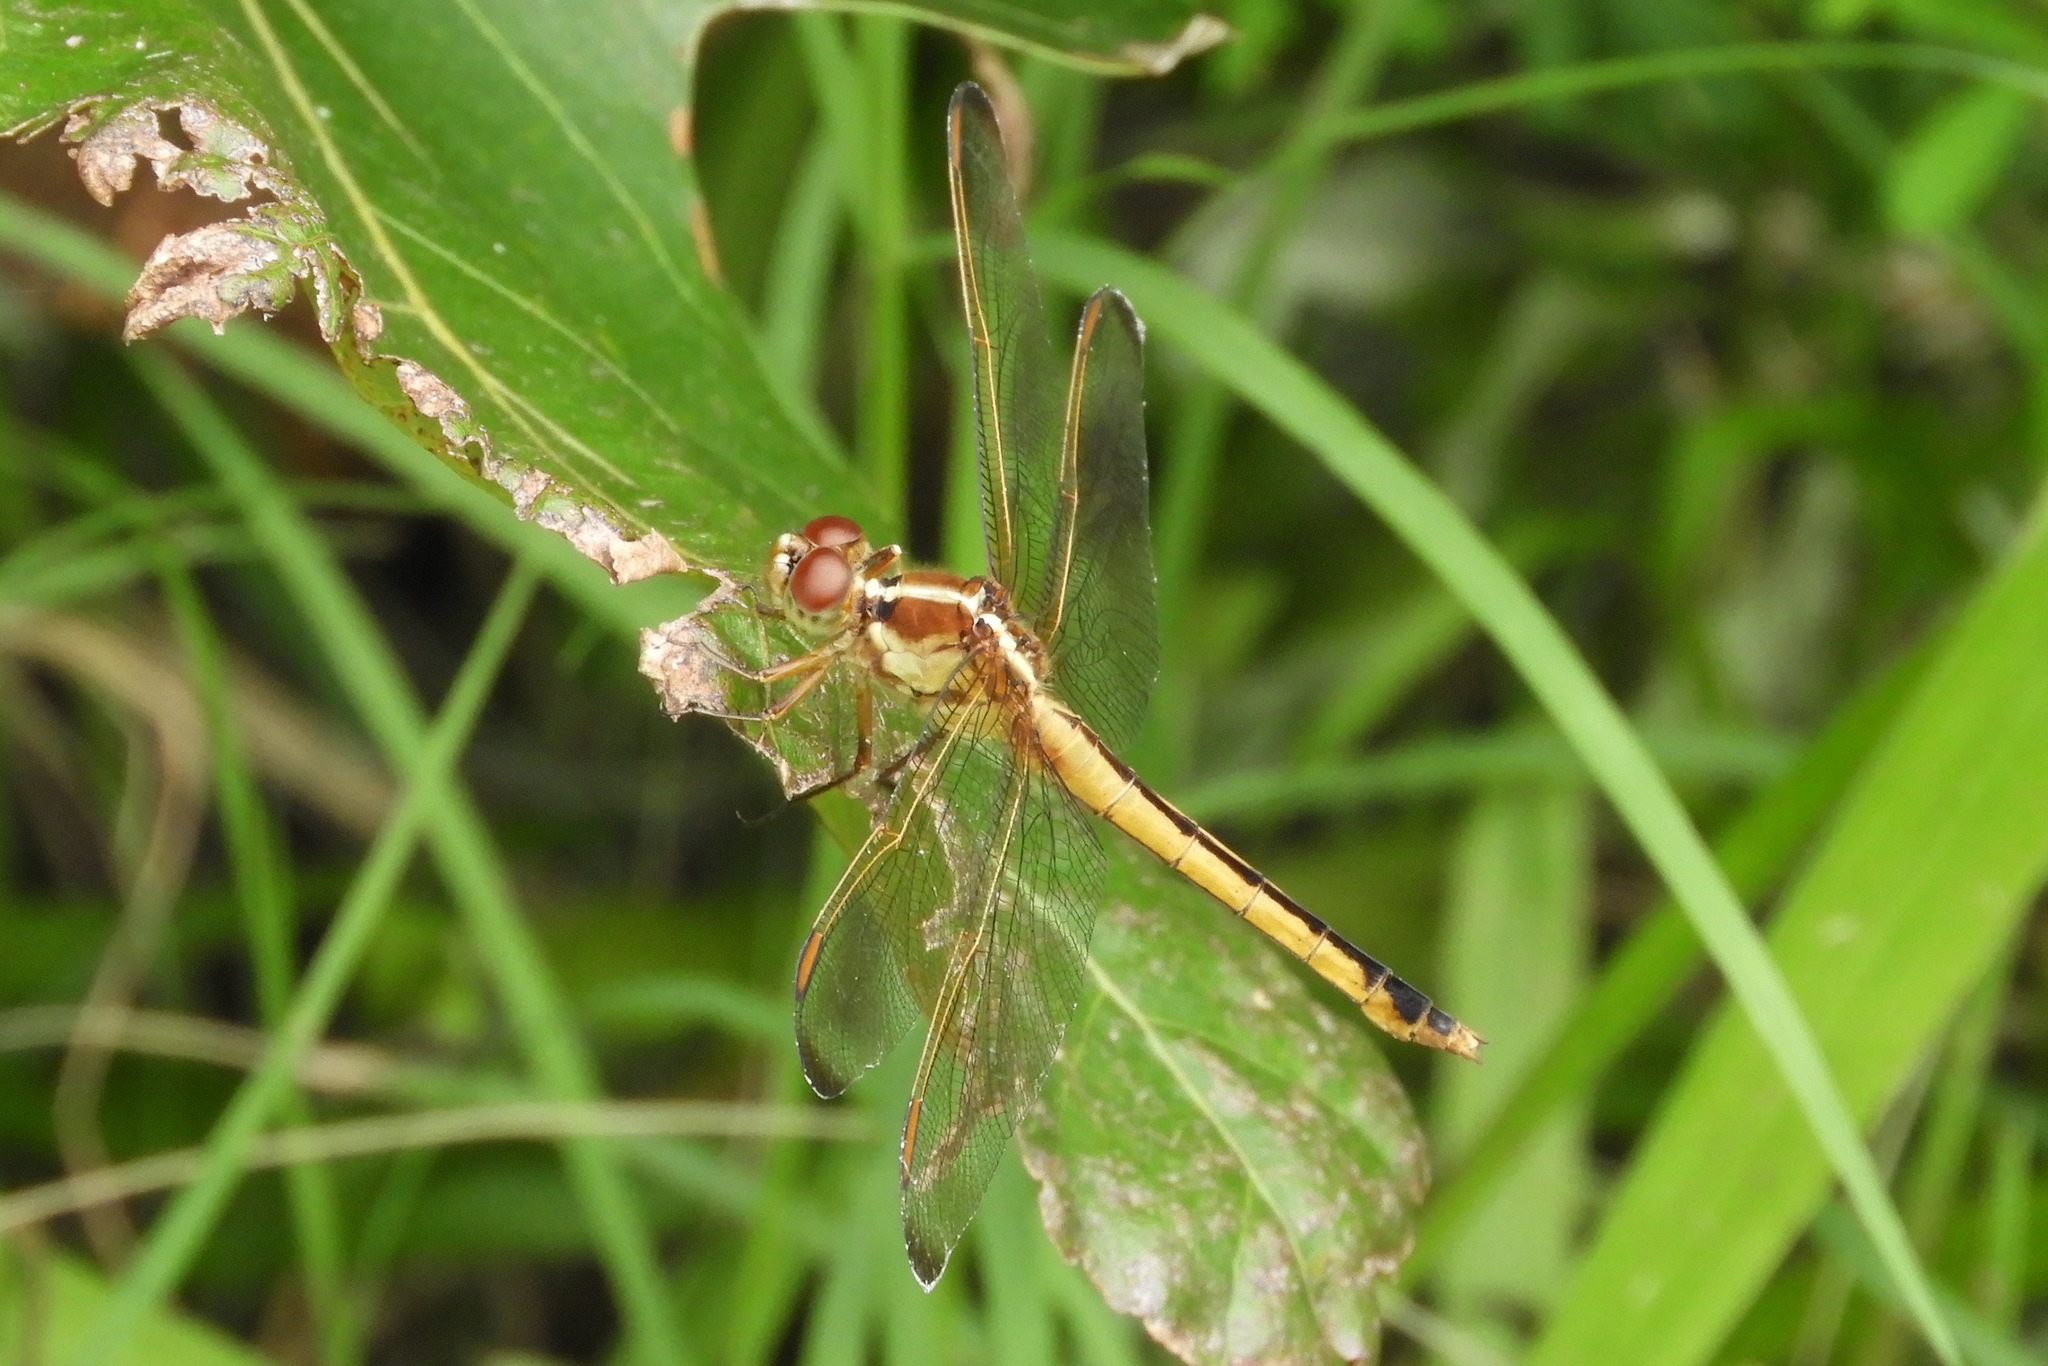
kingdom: Animalia
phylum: Arthropoda
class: Insecta
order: Odonata
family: Libellulidae
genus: Libellula
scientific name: Libellula needhami
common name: Needham's skimmer
